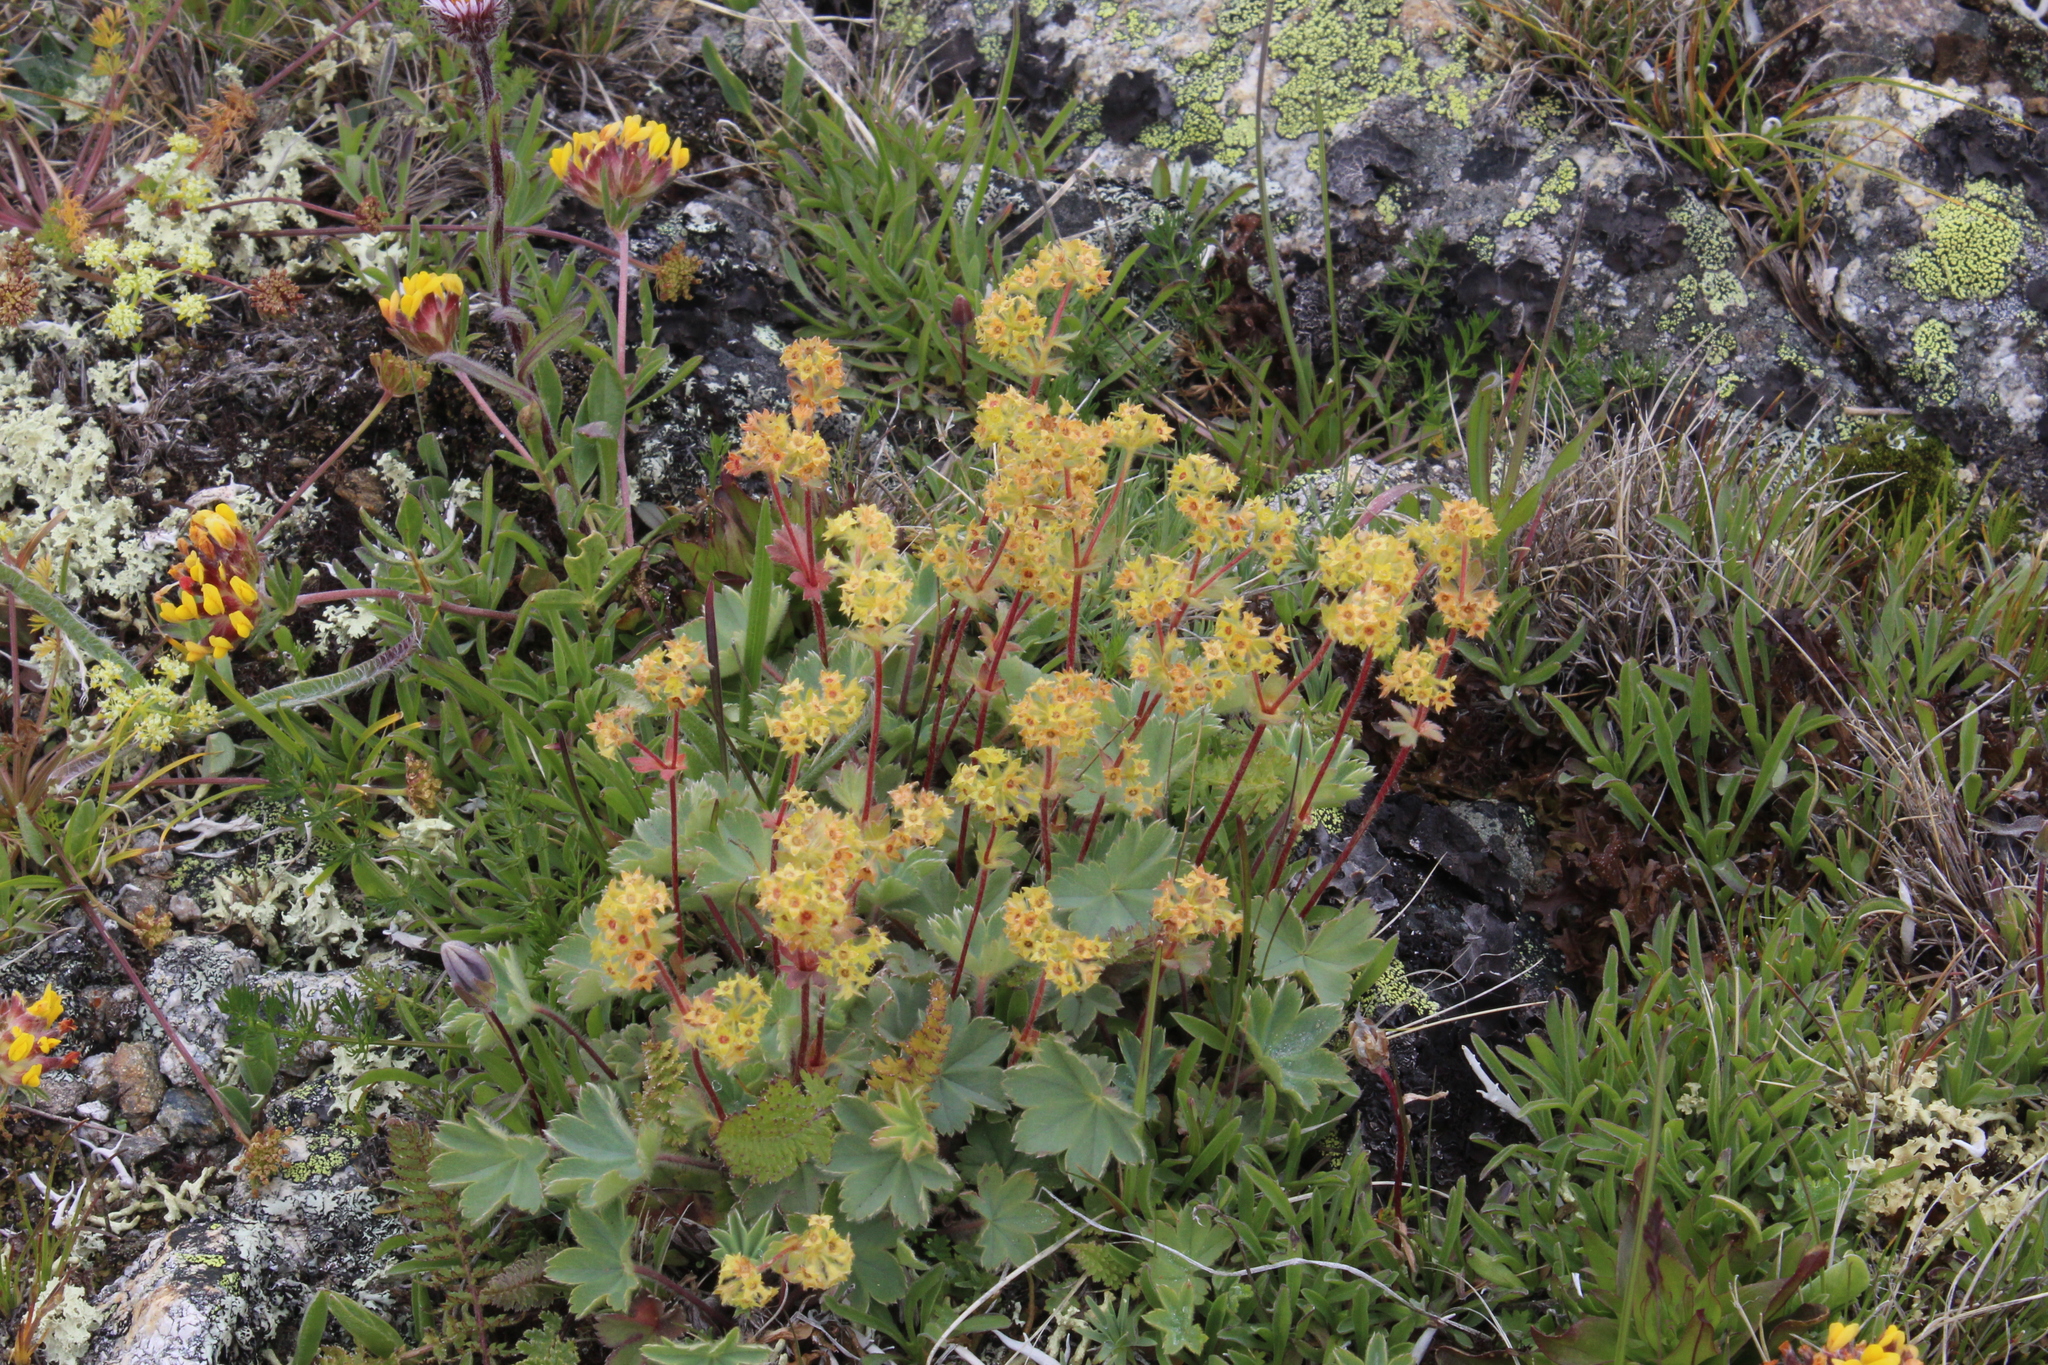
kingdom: Plantae
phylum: Tracheophyta
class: Magnoliopsida
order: Rosales
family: Rosaceae
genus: Alchemilla
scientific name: Alchemilla caucasica
